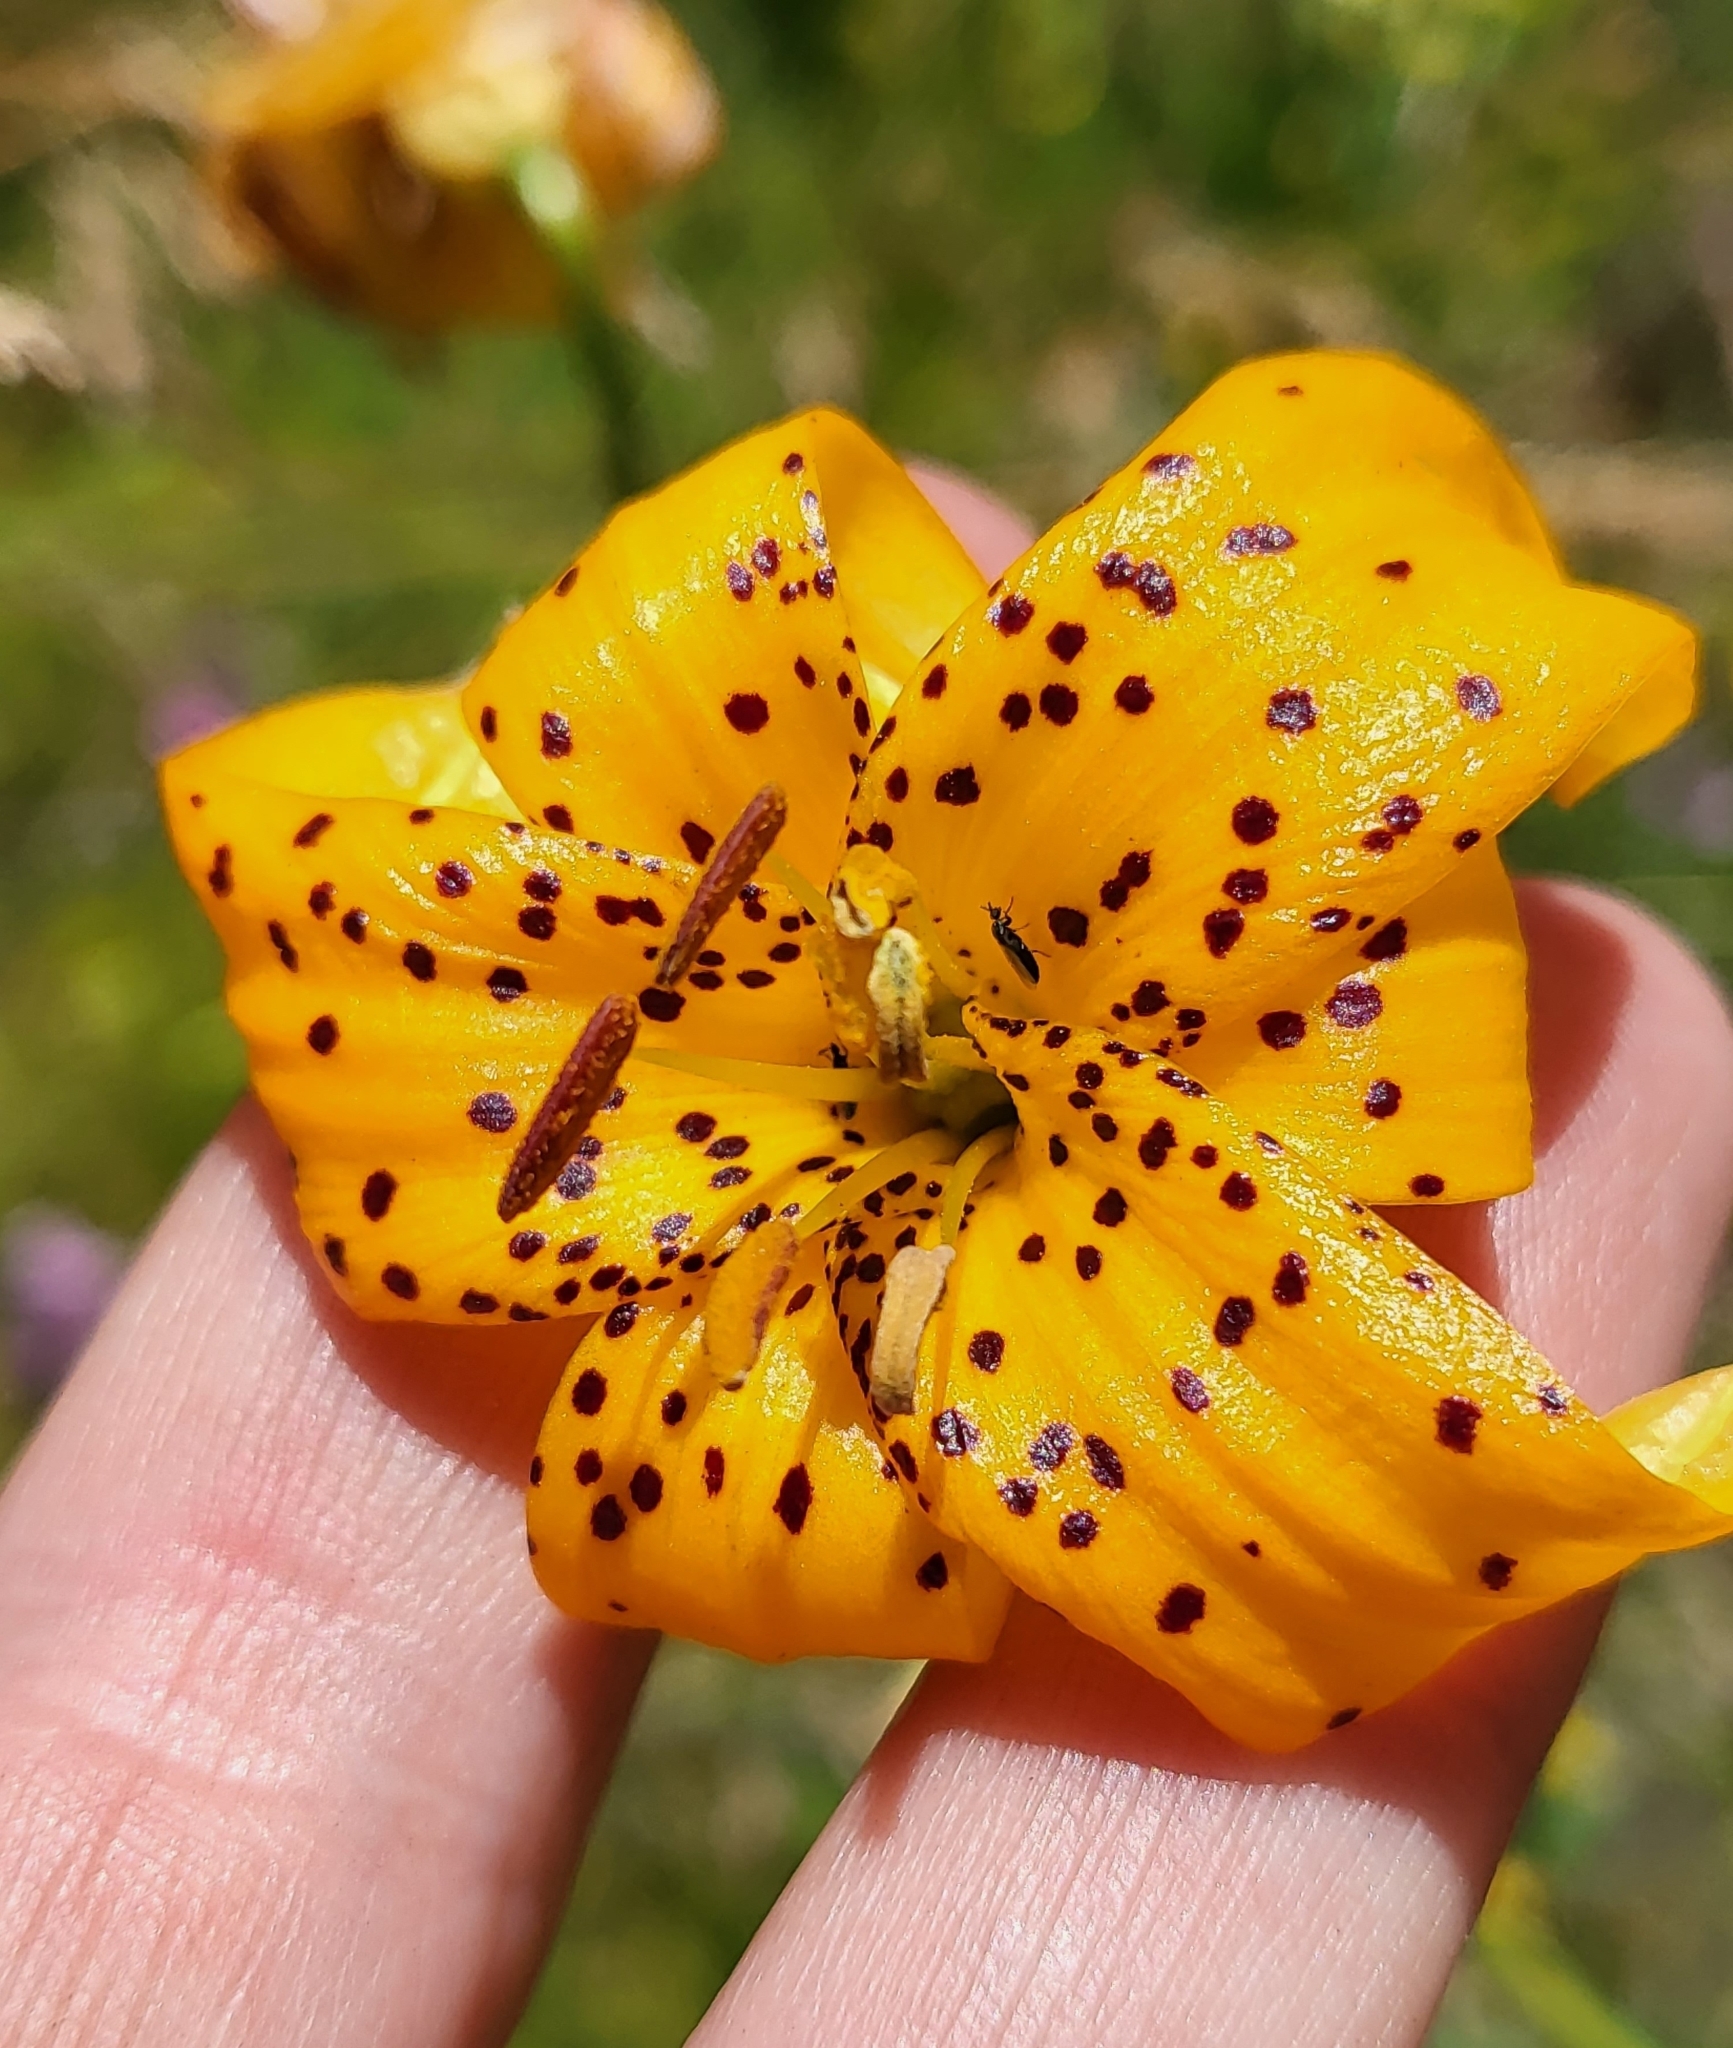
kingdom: Plantae
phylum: Tracheophyta
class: Liliopsida
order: Liliales
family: Liliaceae
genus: Lilium
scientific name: Lilium kelleyanum
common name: Kelley's lily
